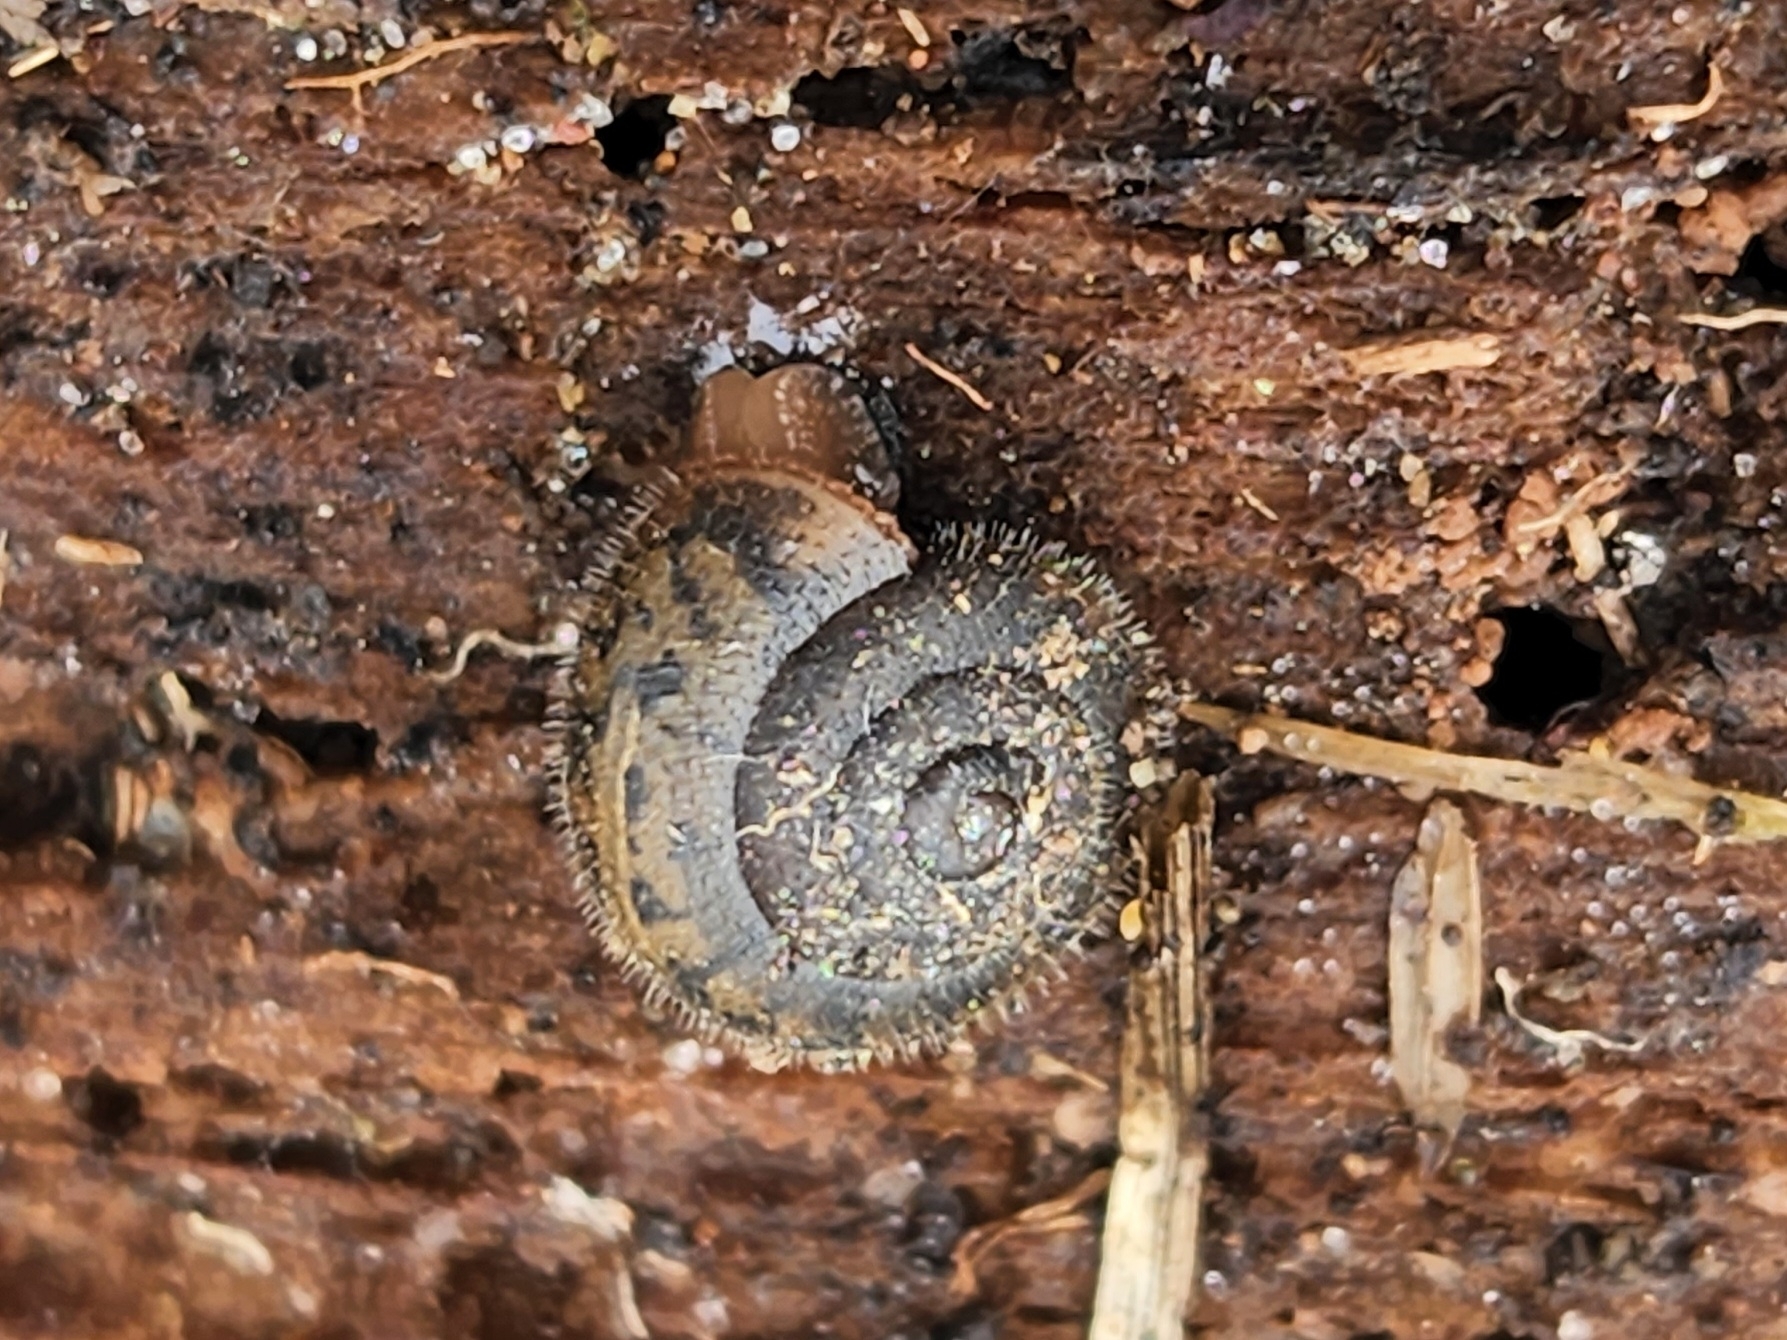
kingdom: Animalia
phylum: Mollusca
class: Gastropoda
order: Stylommatophora
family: Polygyridae
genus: Vespericola
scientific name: Vespericola columbianus
